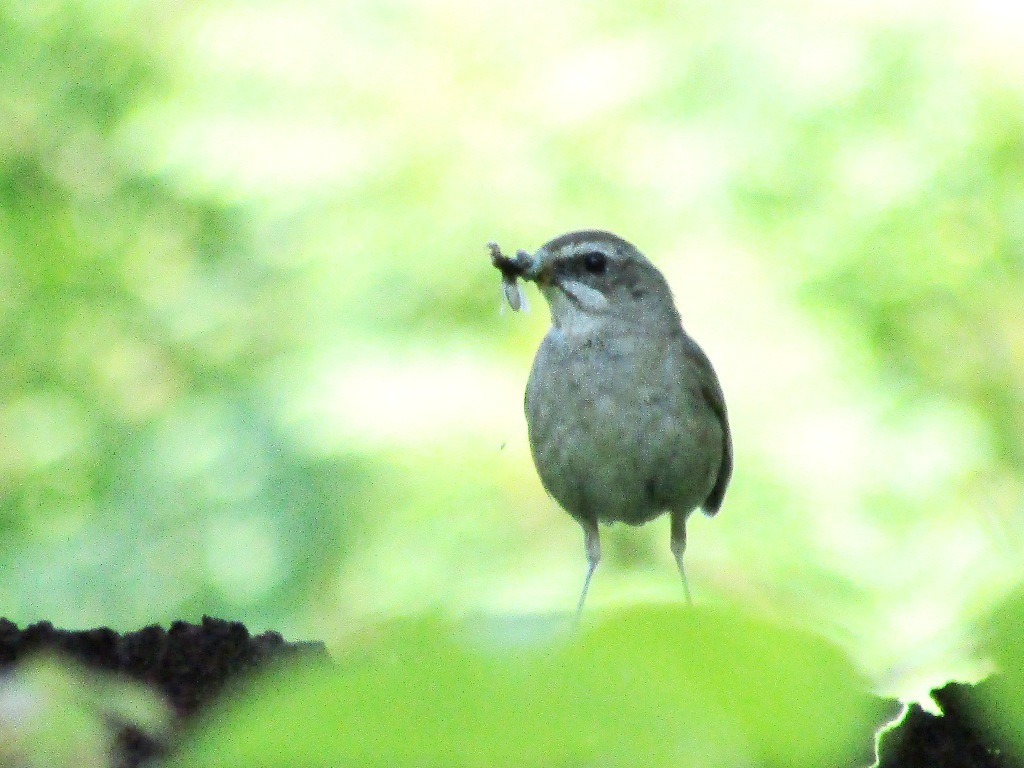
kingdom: Animalia
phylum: Chordata
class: Aves
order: Passeriformes
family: Muscicapidae
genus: Luscinia
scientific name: Luscinia calliope
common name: Siberian rubythroat
